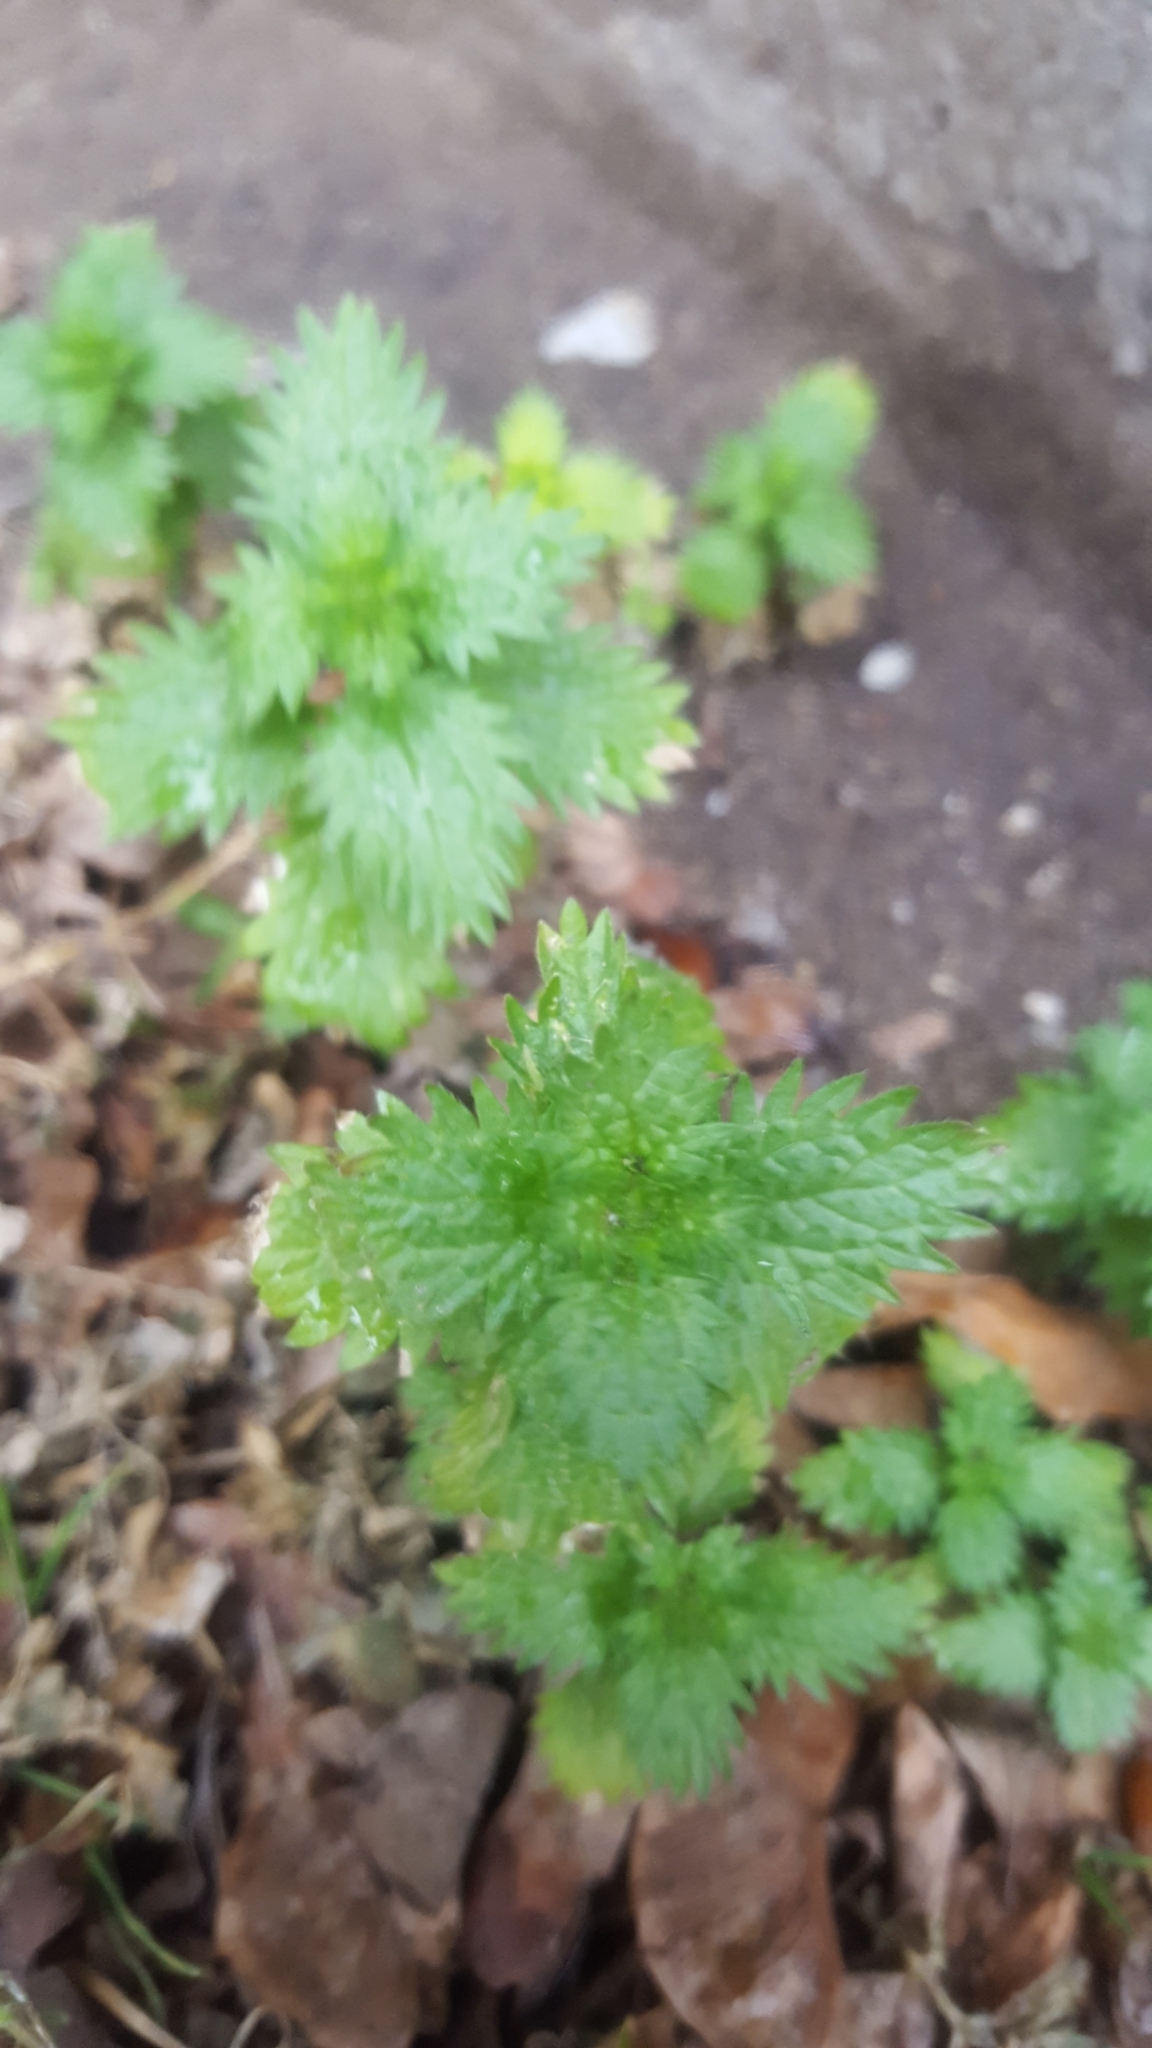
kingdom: Plantae
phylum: Tracheophyta
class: Magnoliopsida
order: Rosales
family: Urticaceae
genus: Urtica
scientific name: Urtica urens
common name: Dwarf nettle
